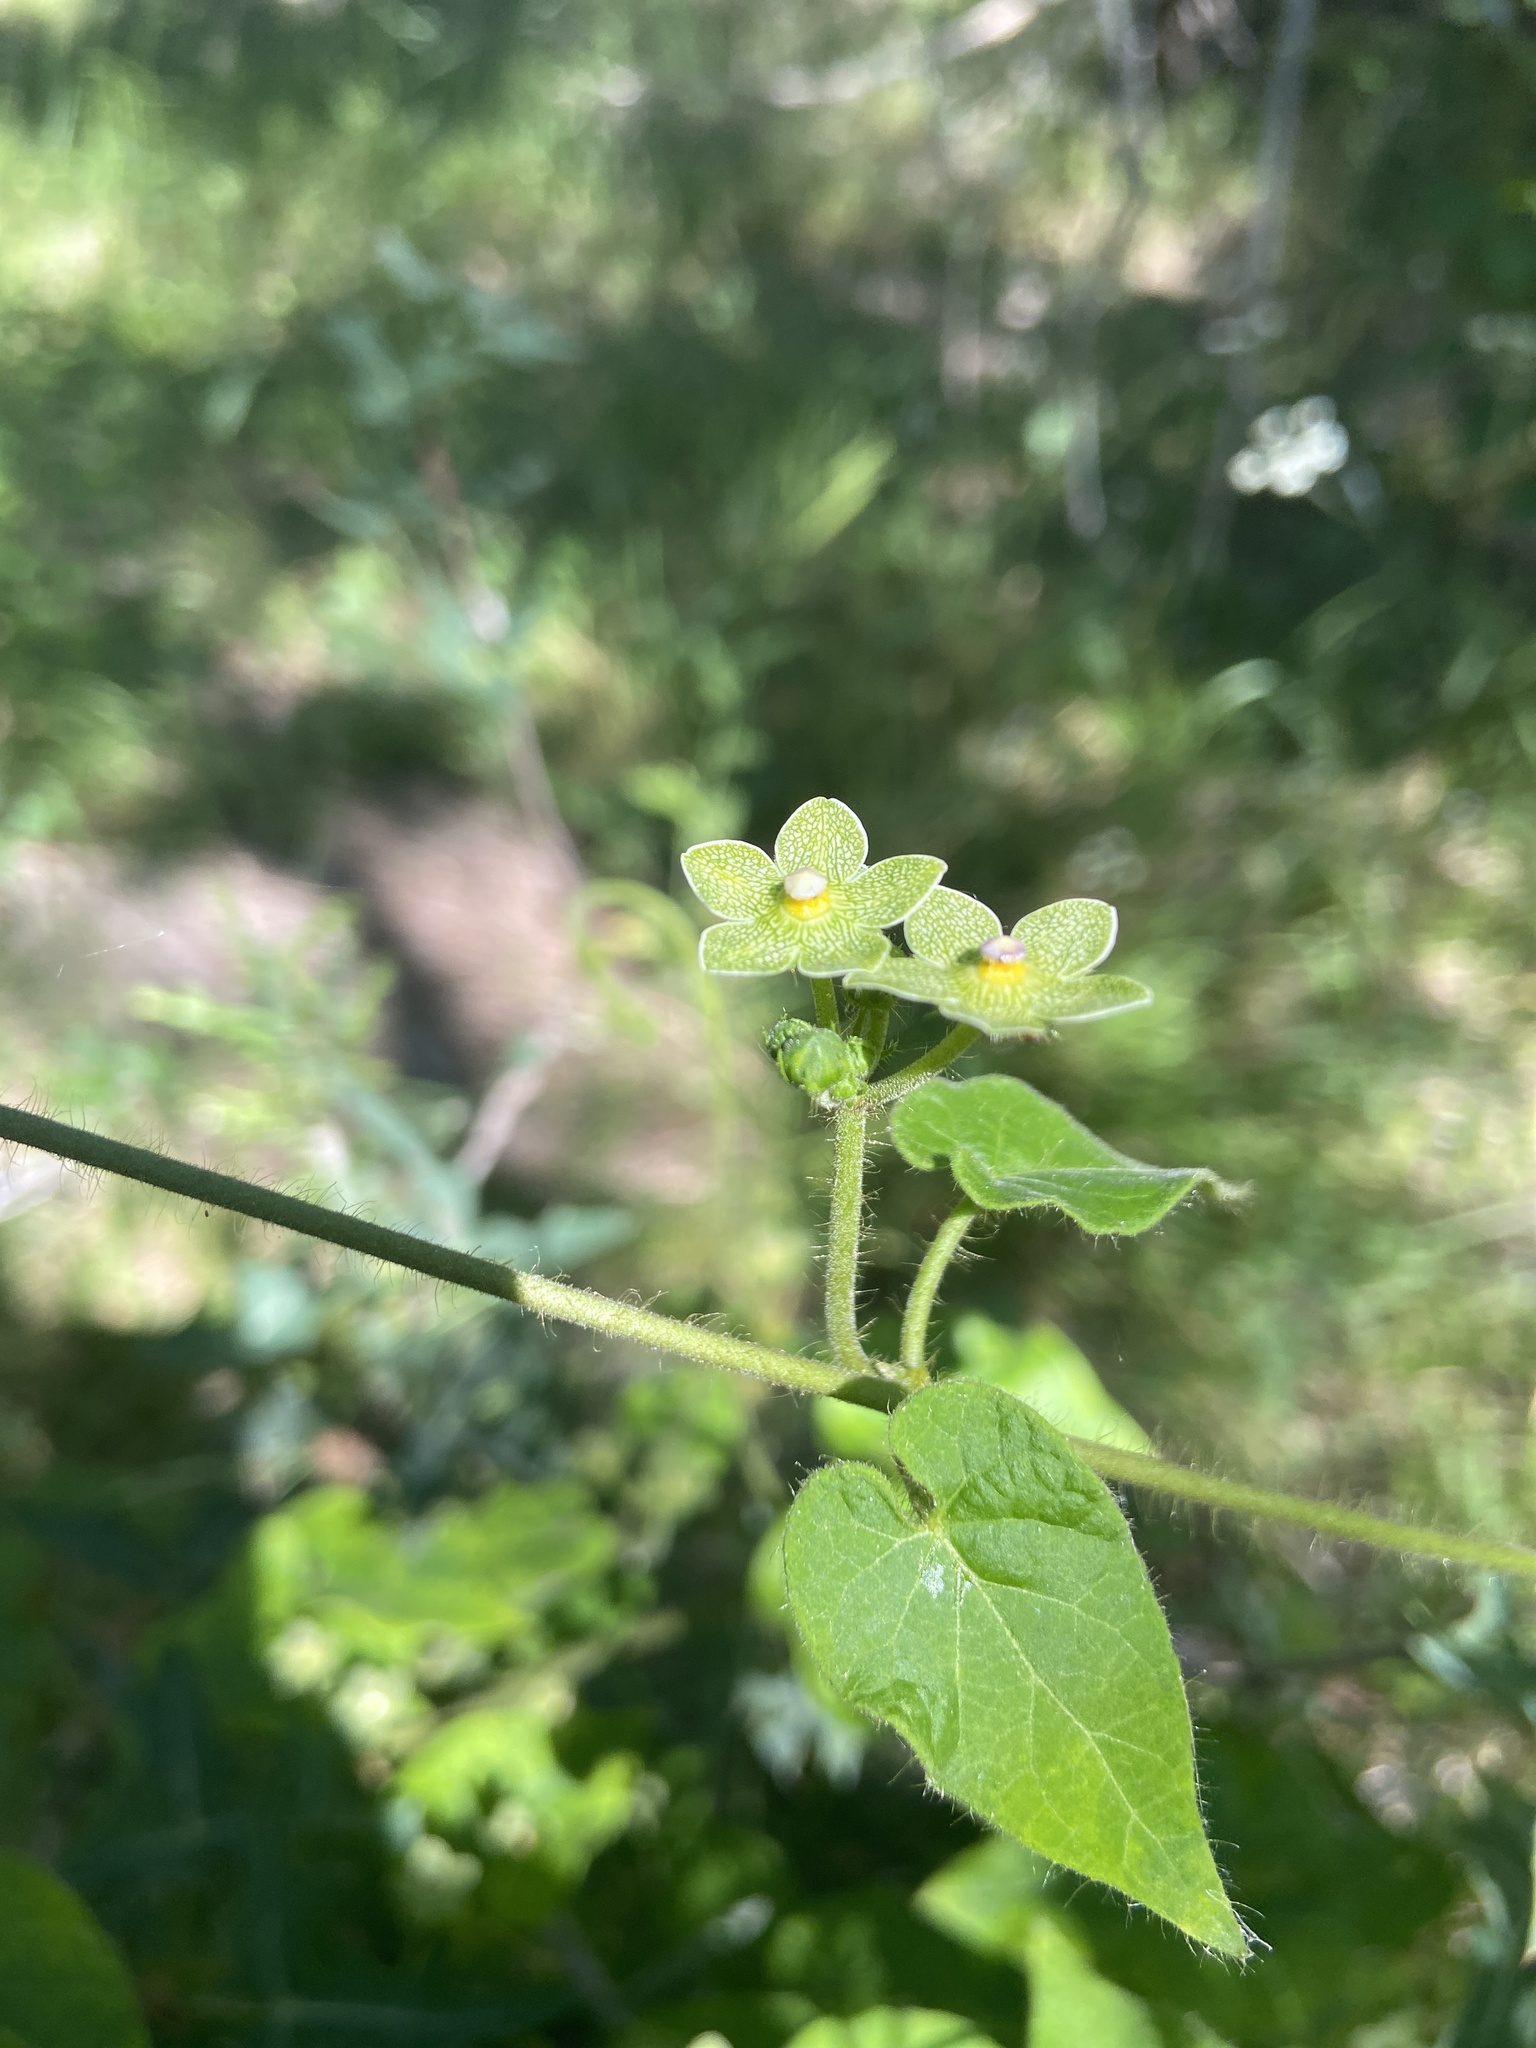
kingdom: Plantae
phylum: Tracheophyta
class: Magnoliopsida
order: Gentianales
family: Apocynaceae
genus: Dictyanthus
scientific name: Dictyanthus reticulatus
